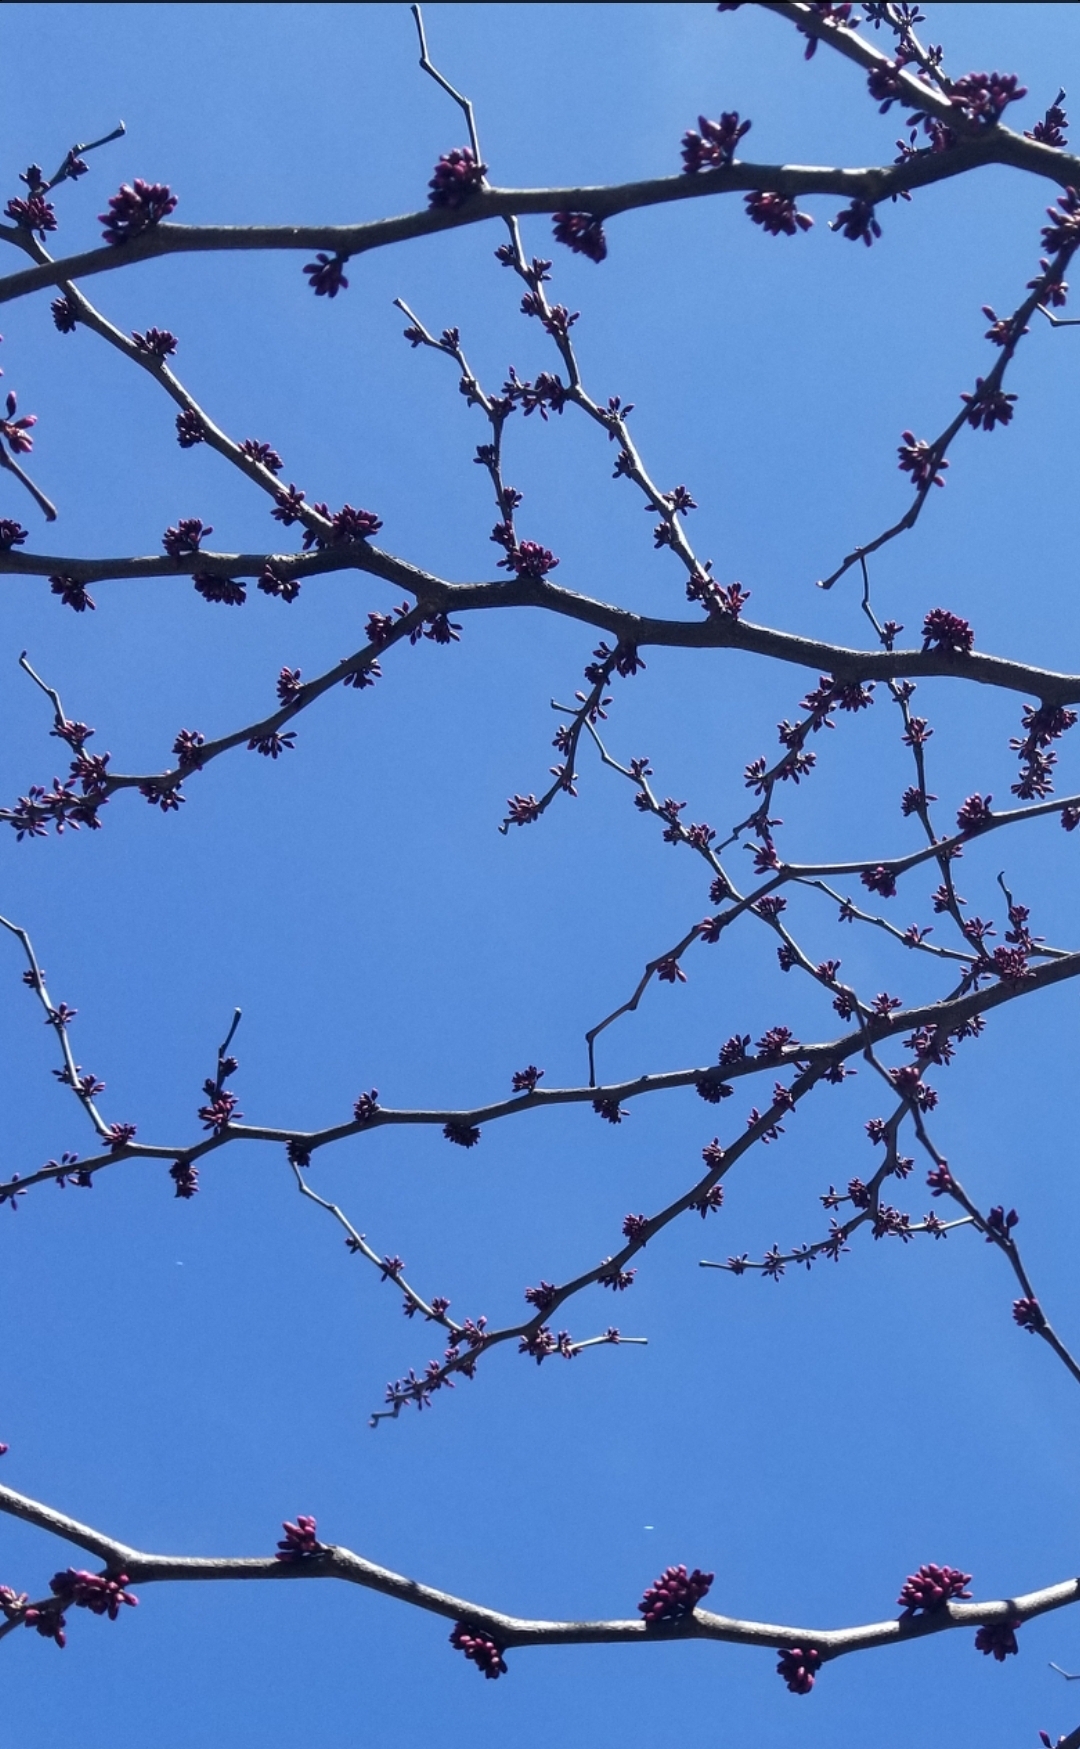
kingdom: Plantae
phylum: Tracheophyta
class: Magnoliopsida
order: Fabales
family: Fabaceae
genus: Cercis
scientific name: Cercis canadensis
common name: Eastern redbud
